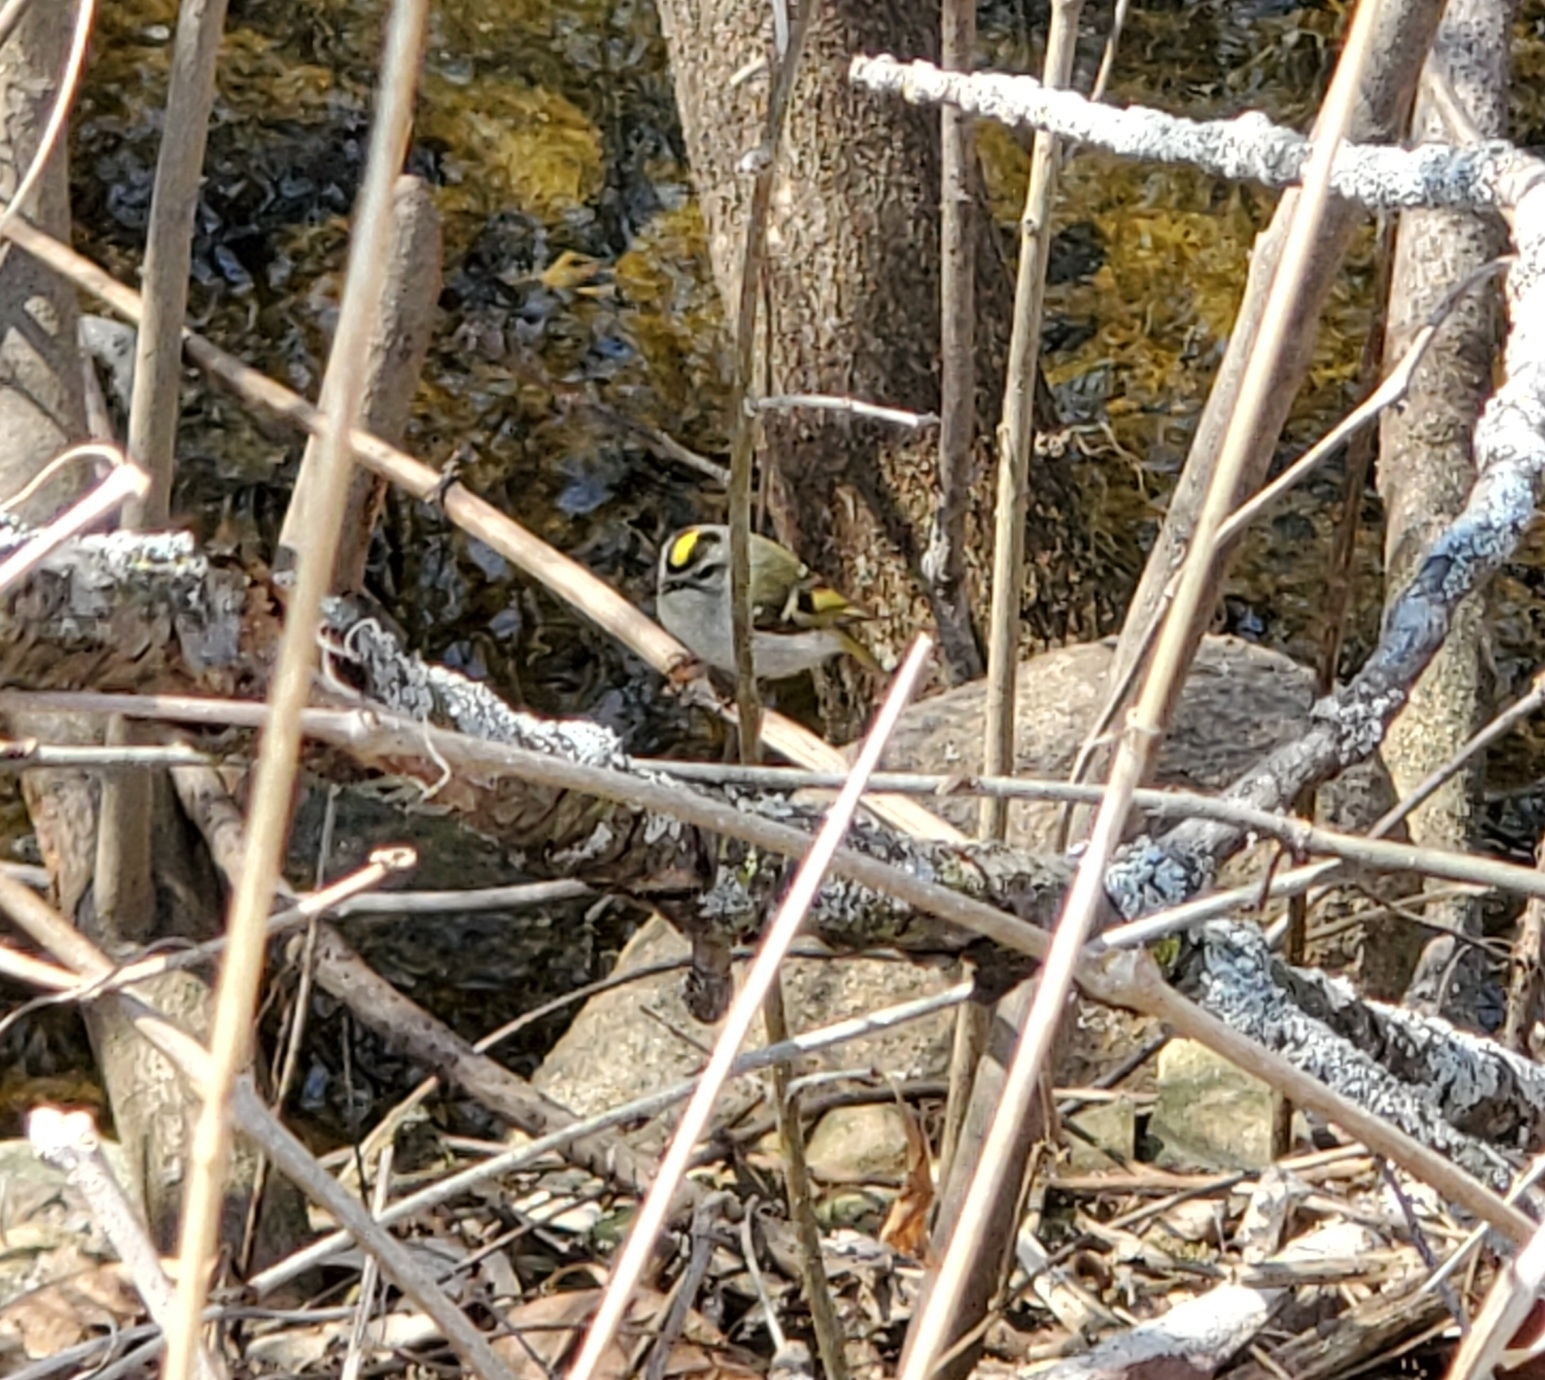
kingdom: Animalia
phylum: Chordata
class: Aves
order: Passeriformes
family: Regulidae
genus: Regulus
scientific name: Regulus satrapa
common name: Golden-crowned kinglet
